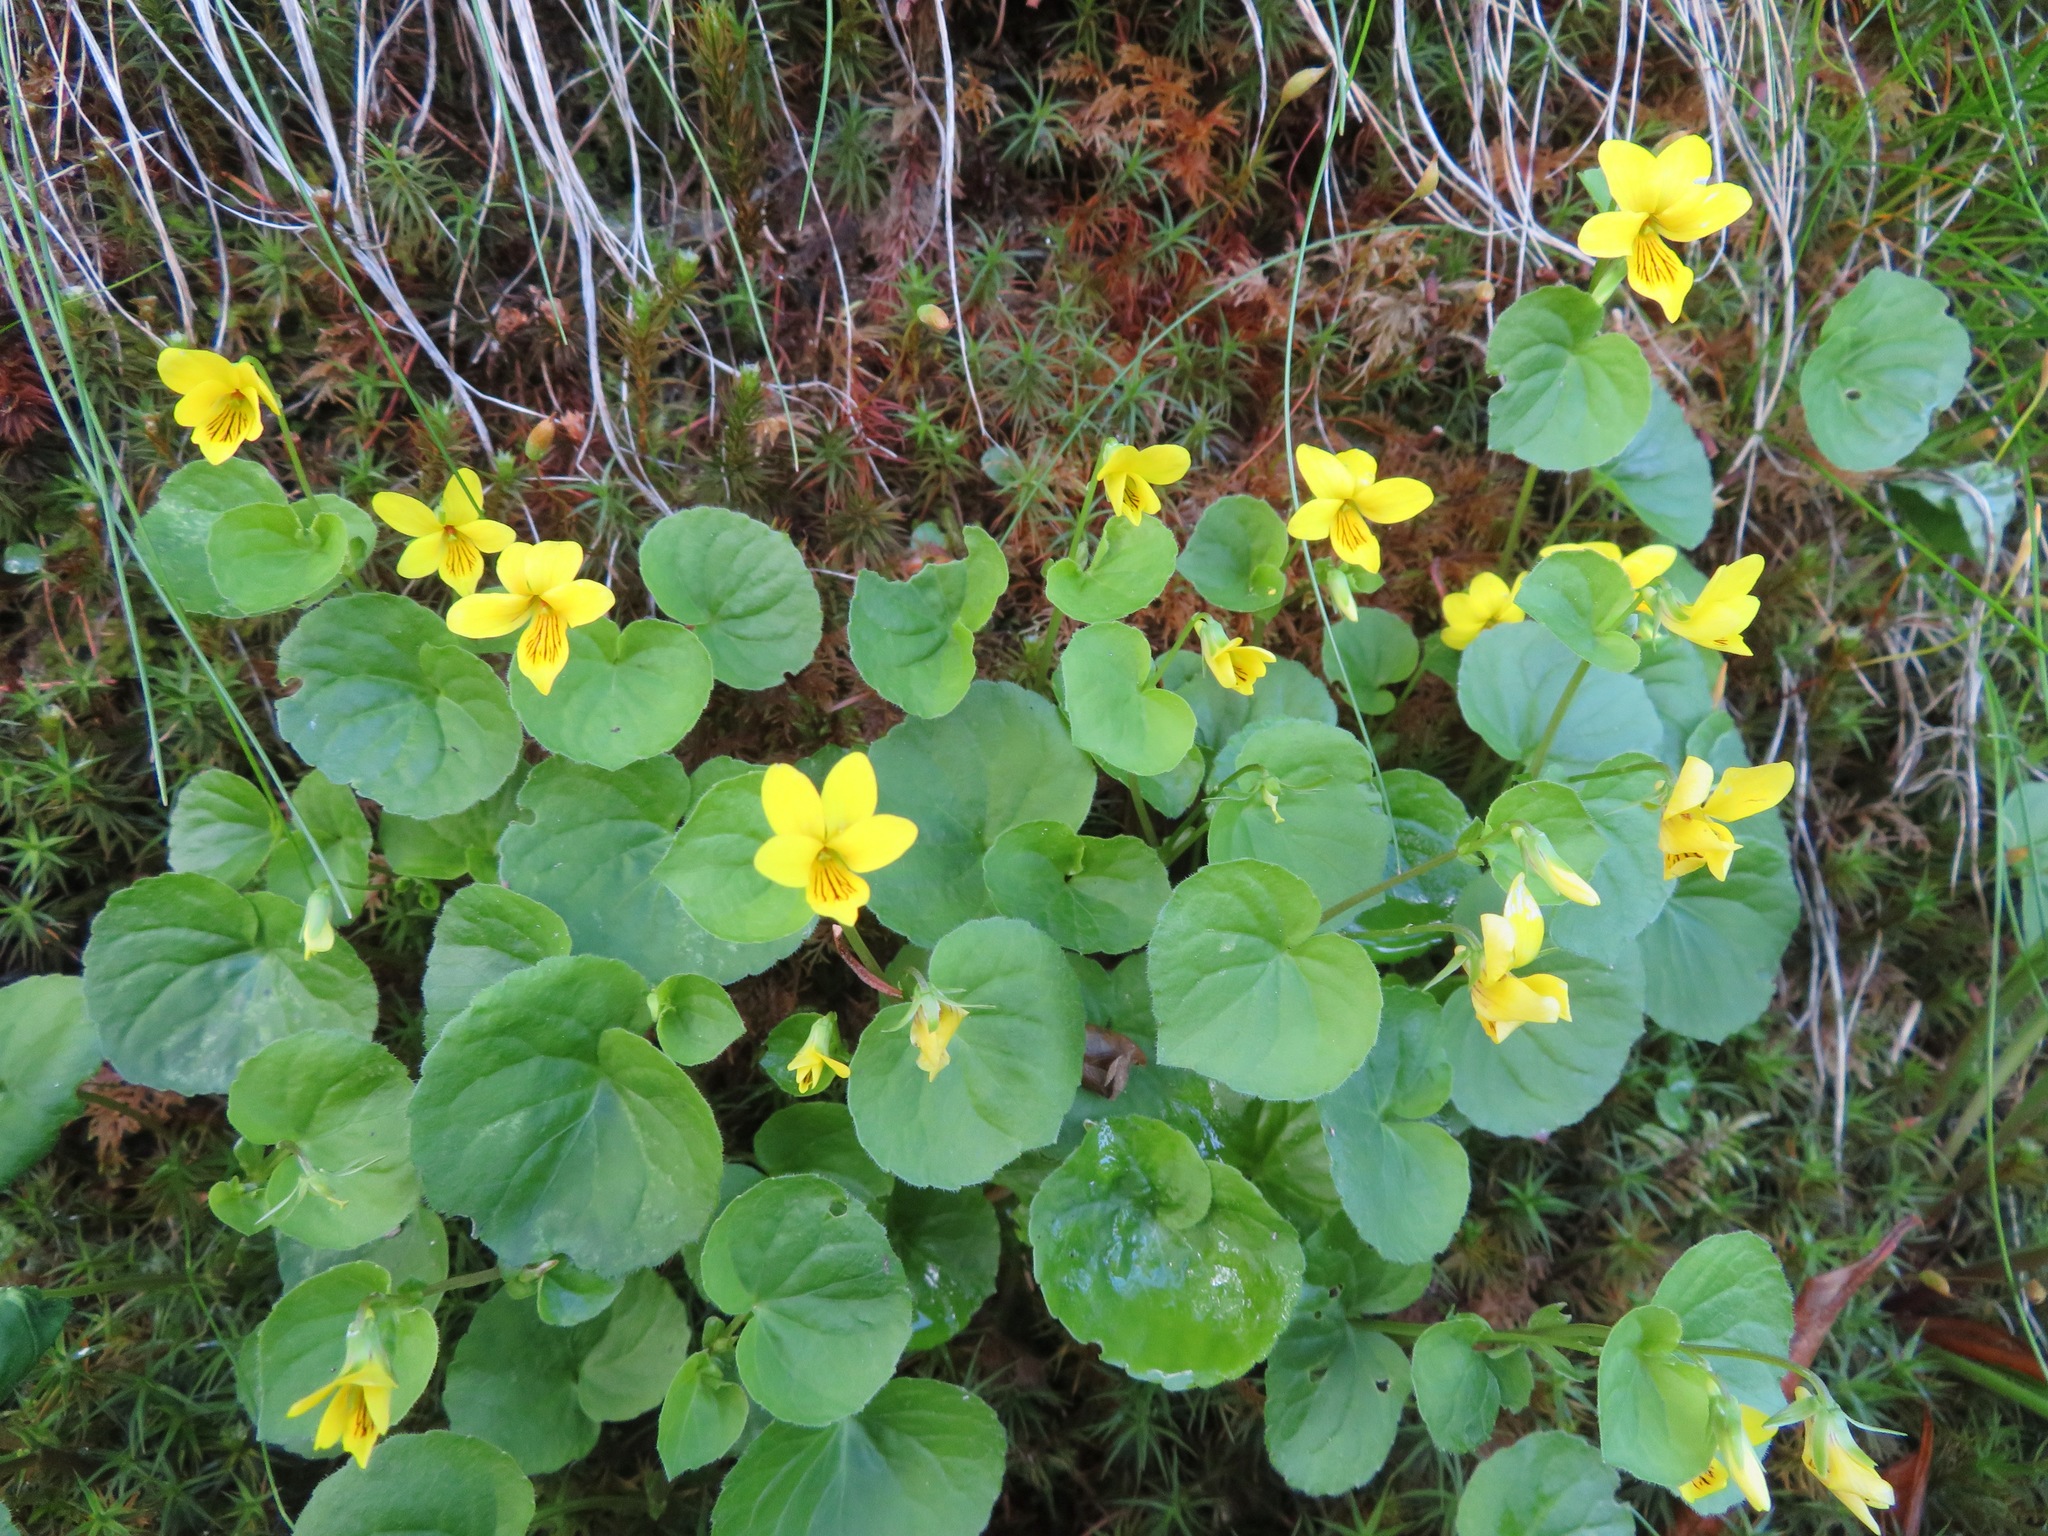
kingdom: Plantae
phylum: Tracheophyta
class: Magnoliopsida
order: Malpighiales
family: Violaceae
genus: Viola
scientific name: Viola biflora
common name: Alpine yellow violet
